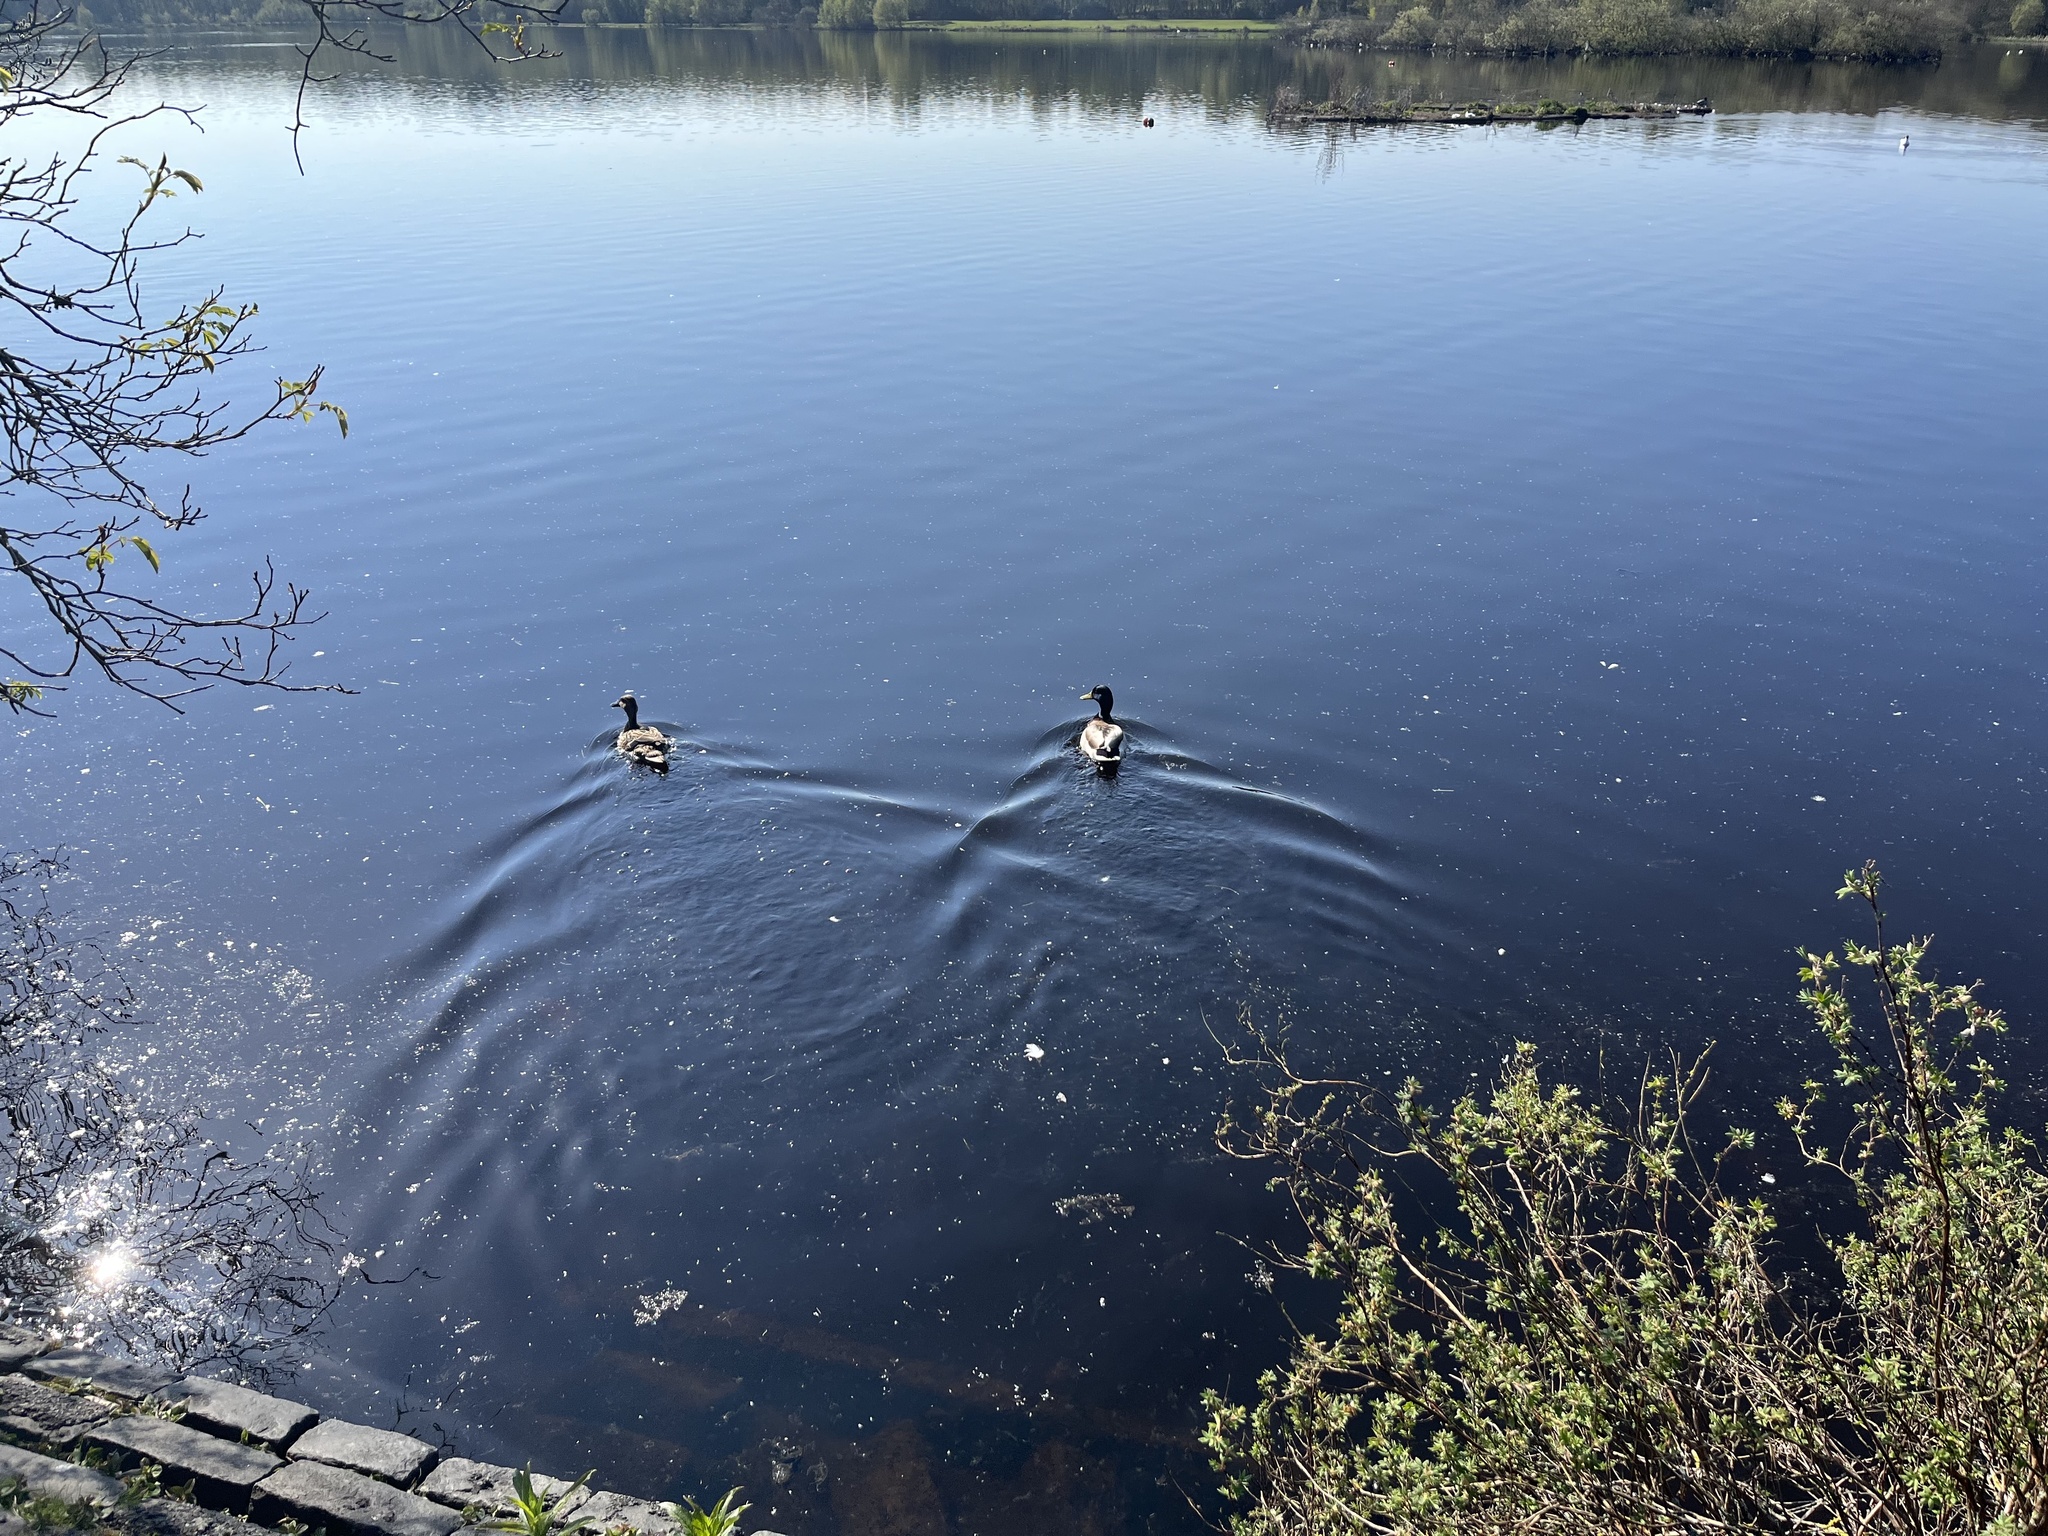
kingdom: Animalia
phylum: Chordata
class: Aves
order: Anseriformes
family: Anatidae
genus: Anas
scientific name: Anas platyrhynchos
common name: Mallard
